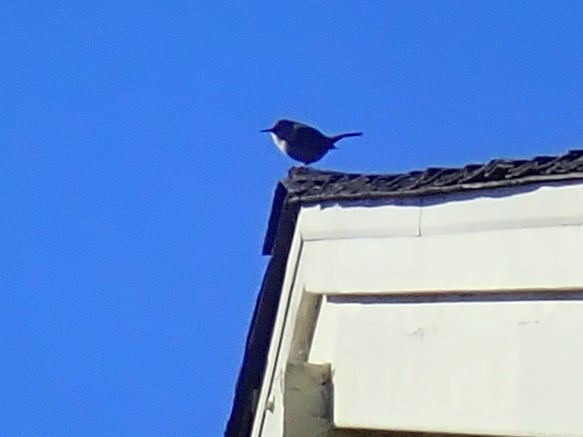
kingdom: Animalia
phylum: Chordata
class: Aves
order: Passeriformes
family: Troglodytidae
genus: Thryomanes
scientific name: Thryomanes bewickii
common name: Bewick's wren
